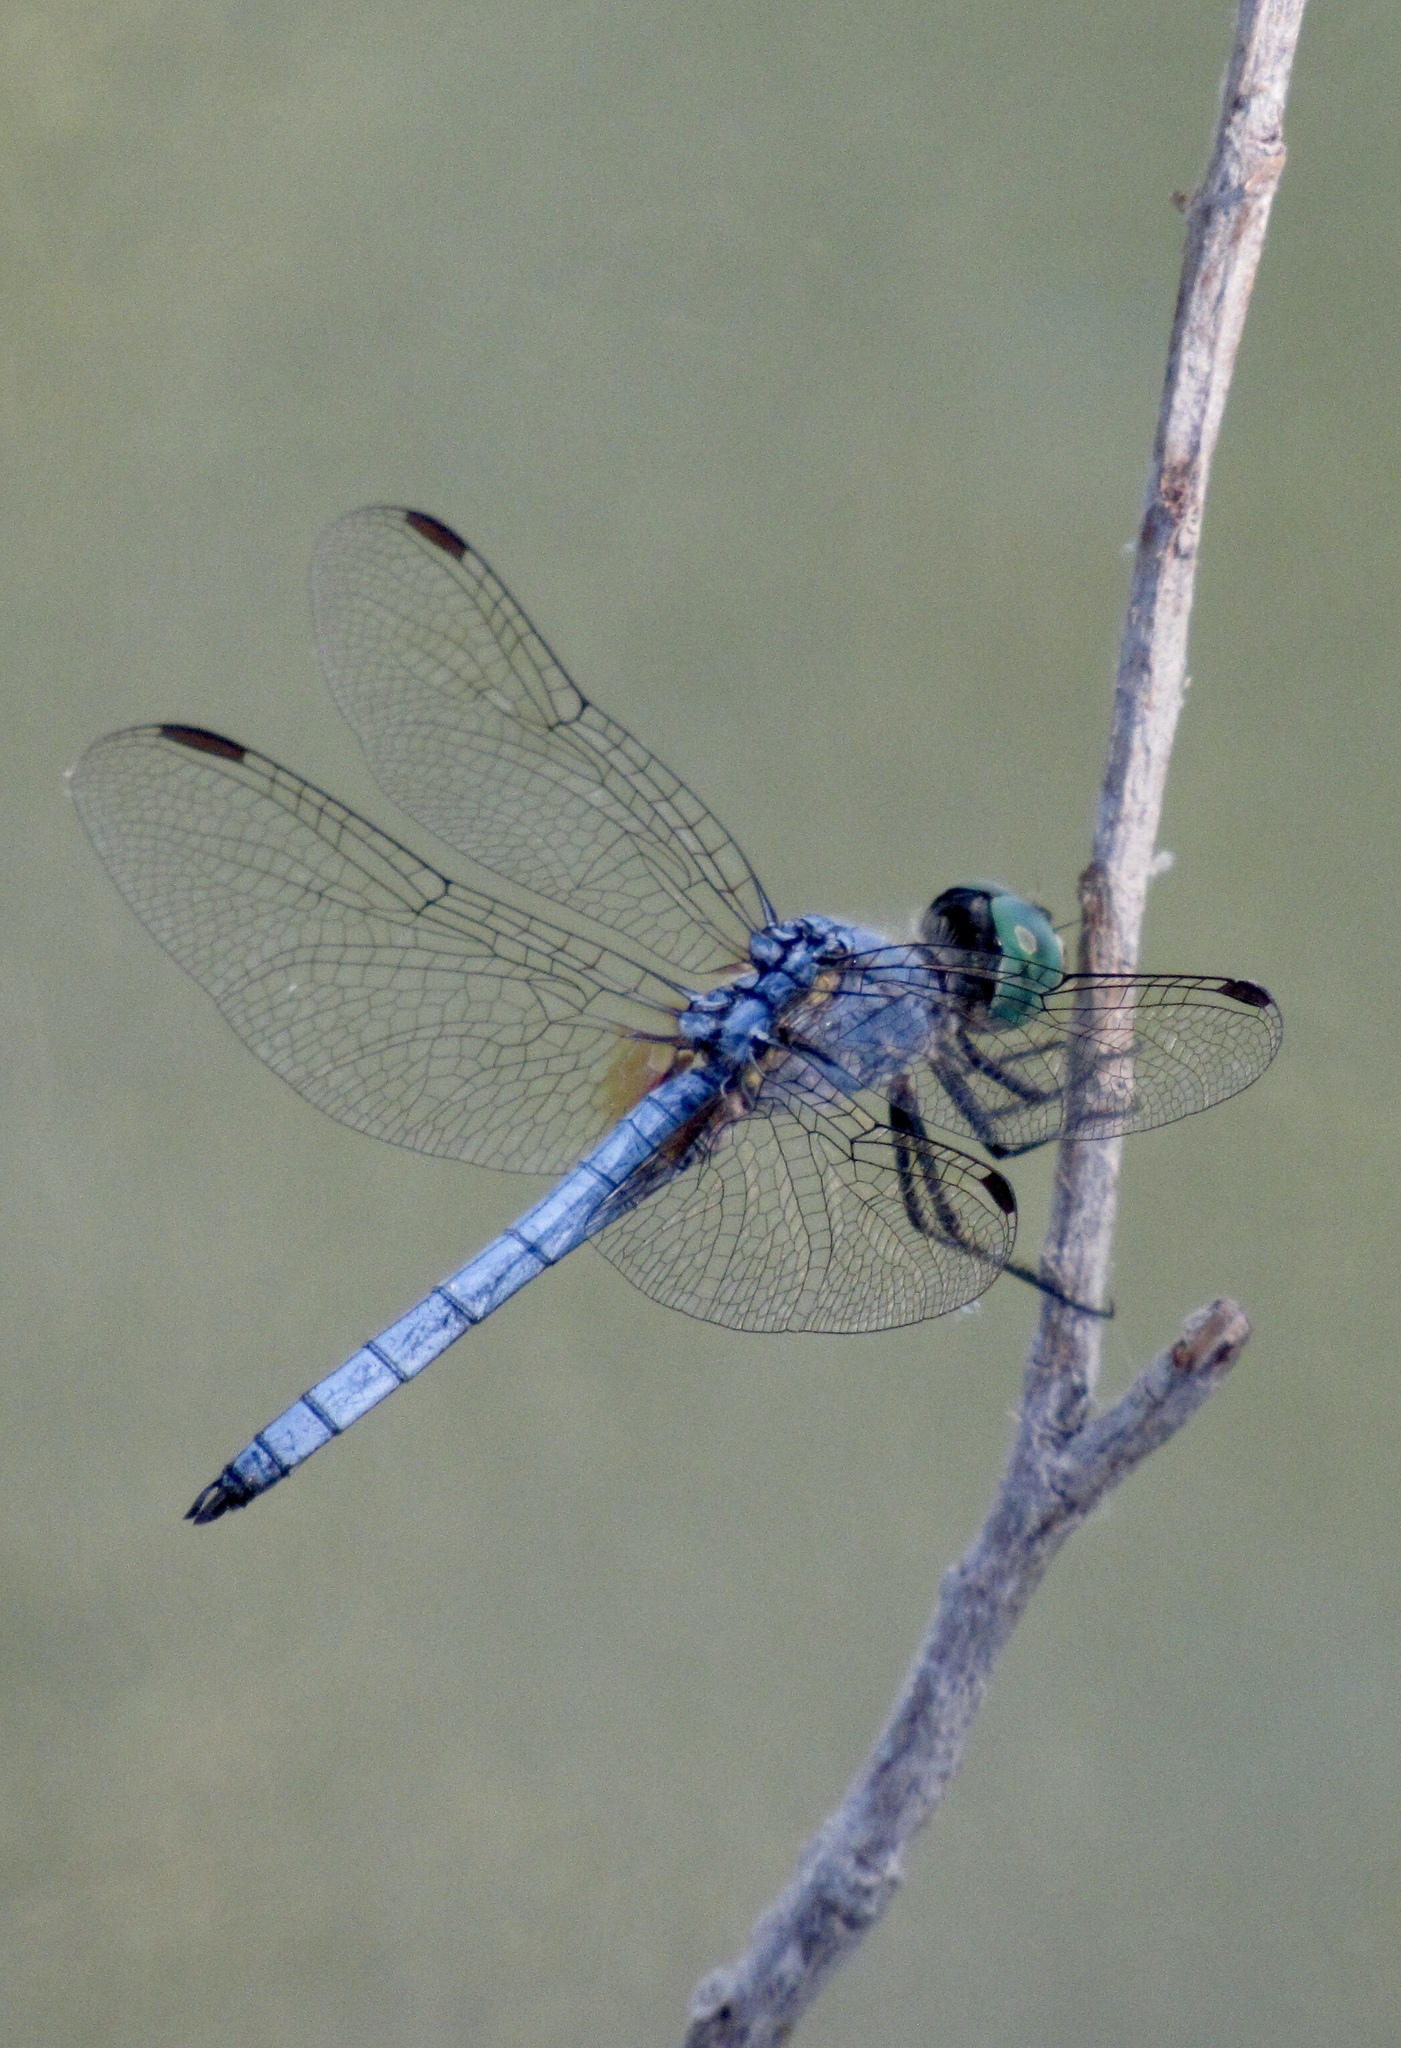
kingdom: Animalia
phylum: Arthropoda
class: Insecta
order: Odonata
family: Libellulidae
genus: Pachydiplax
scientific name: Pachydiplax longipennis
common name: Blue dasher
